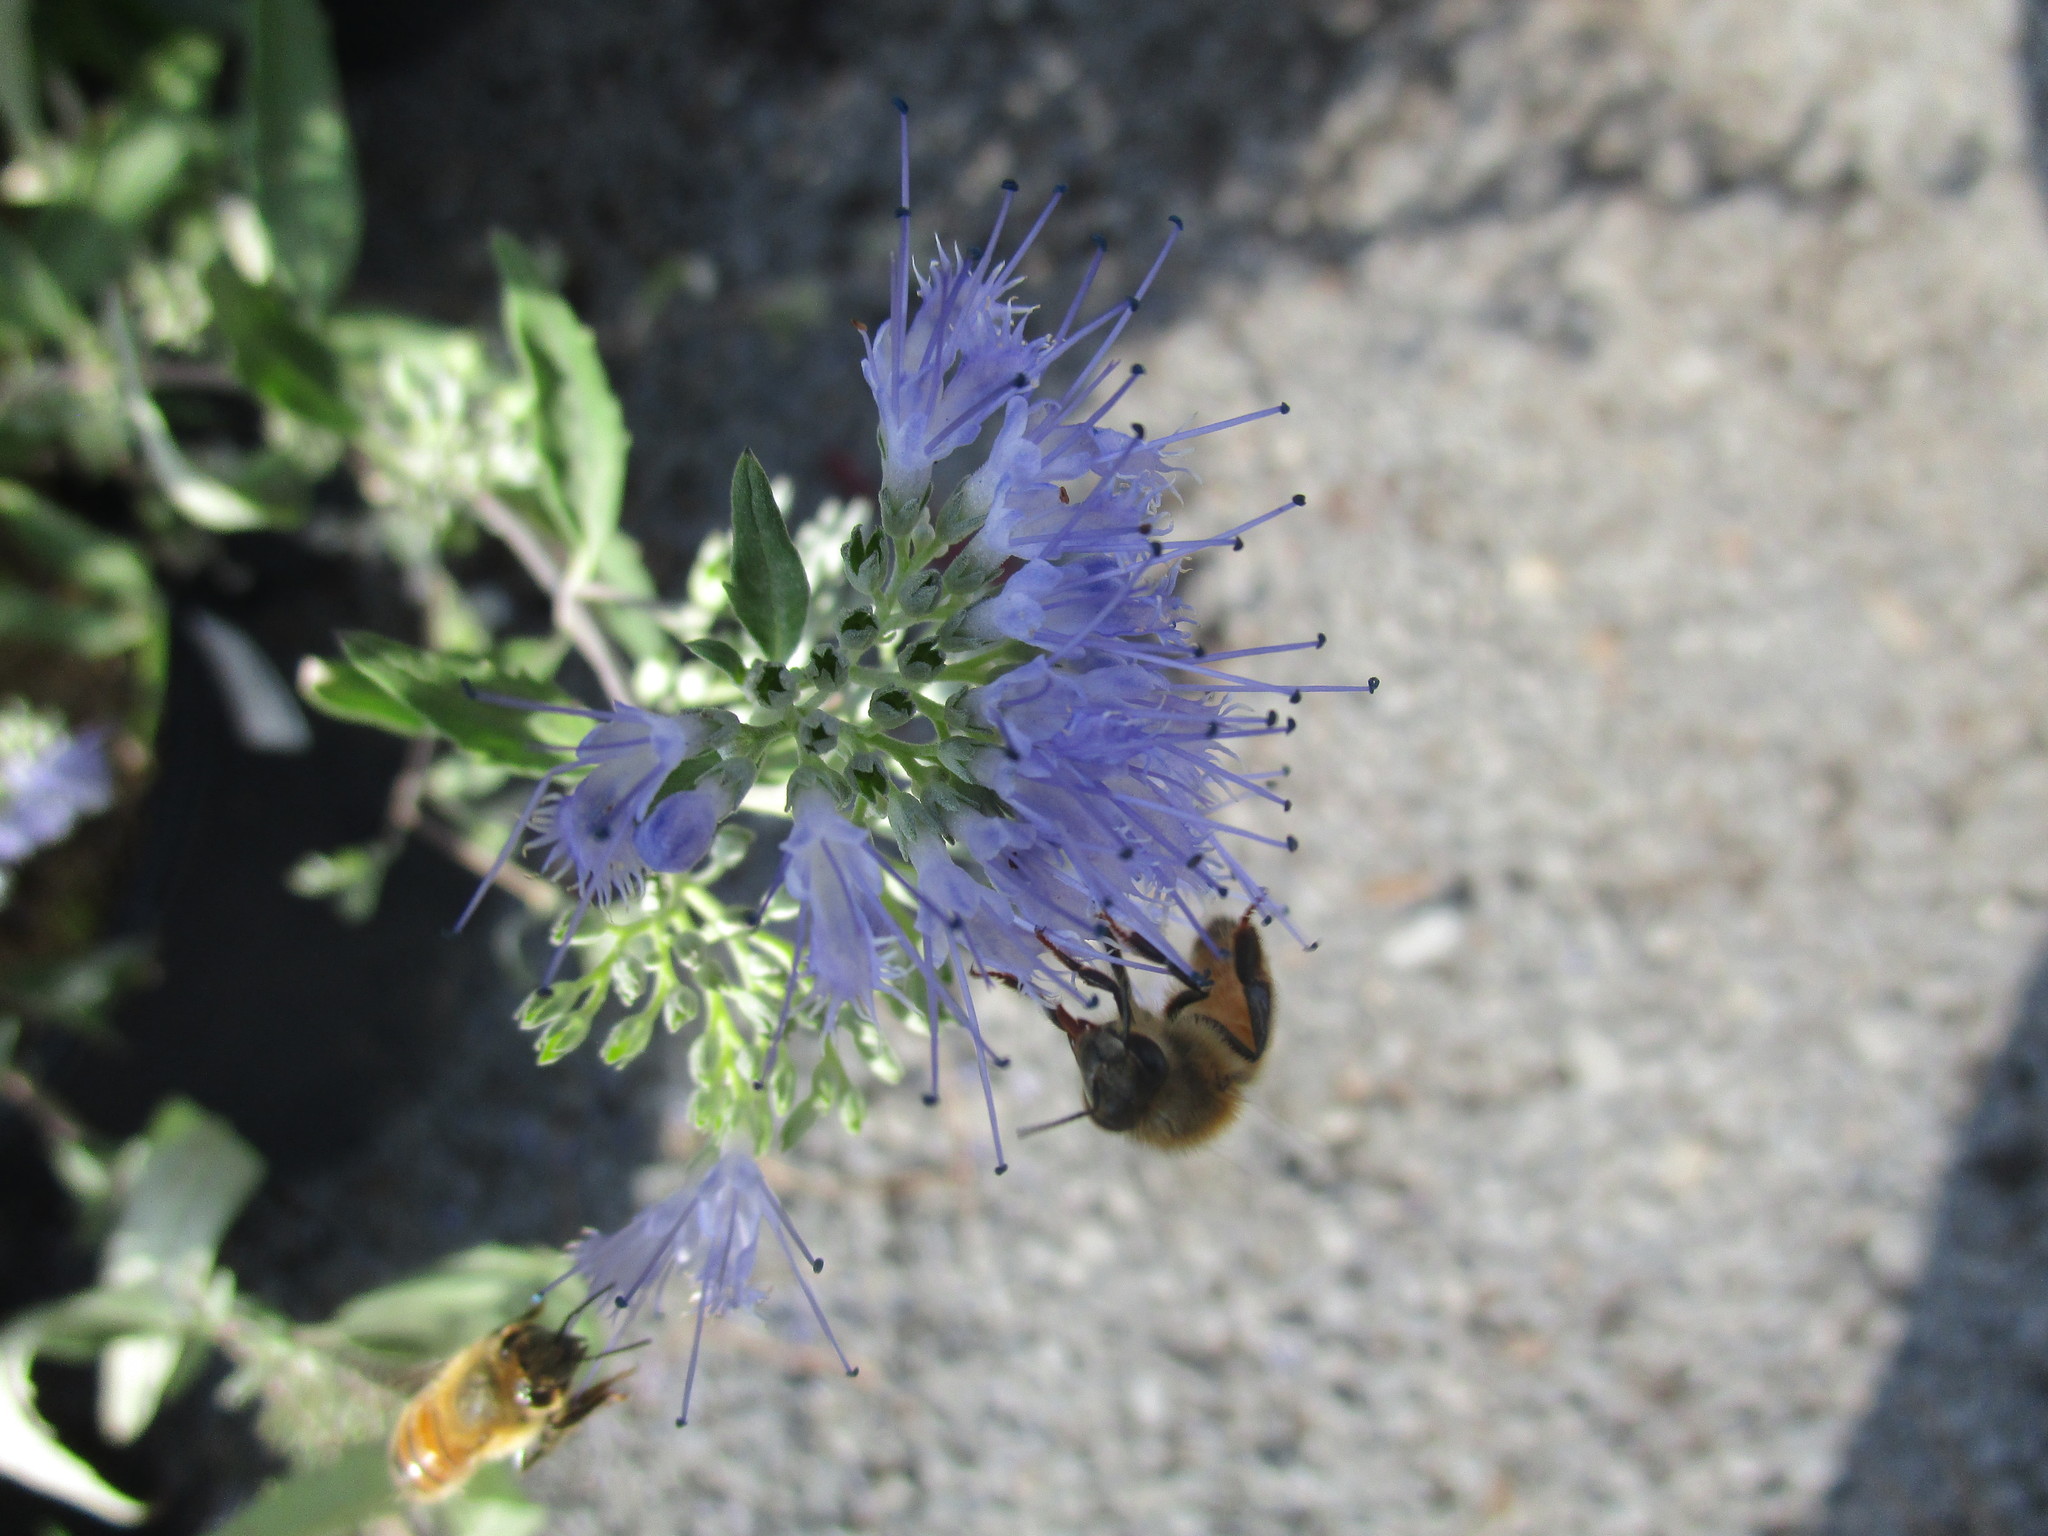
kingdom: Animalia
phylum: Arthropoda
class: Insecta
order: Hymenoptera
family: Apidae
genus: Apis
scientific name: Apis mellifera
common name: Honey bee
